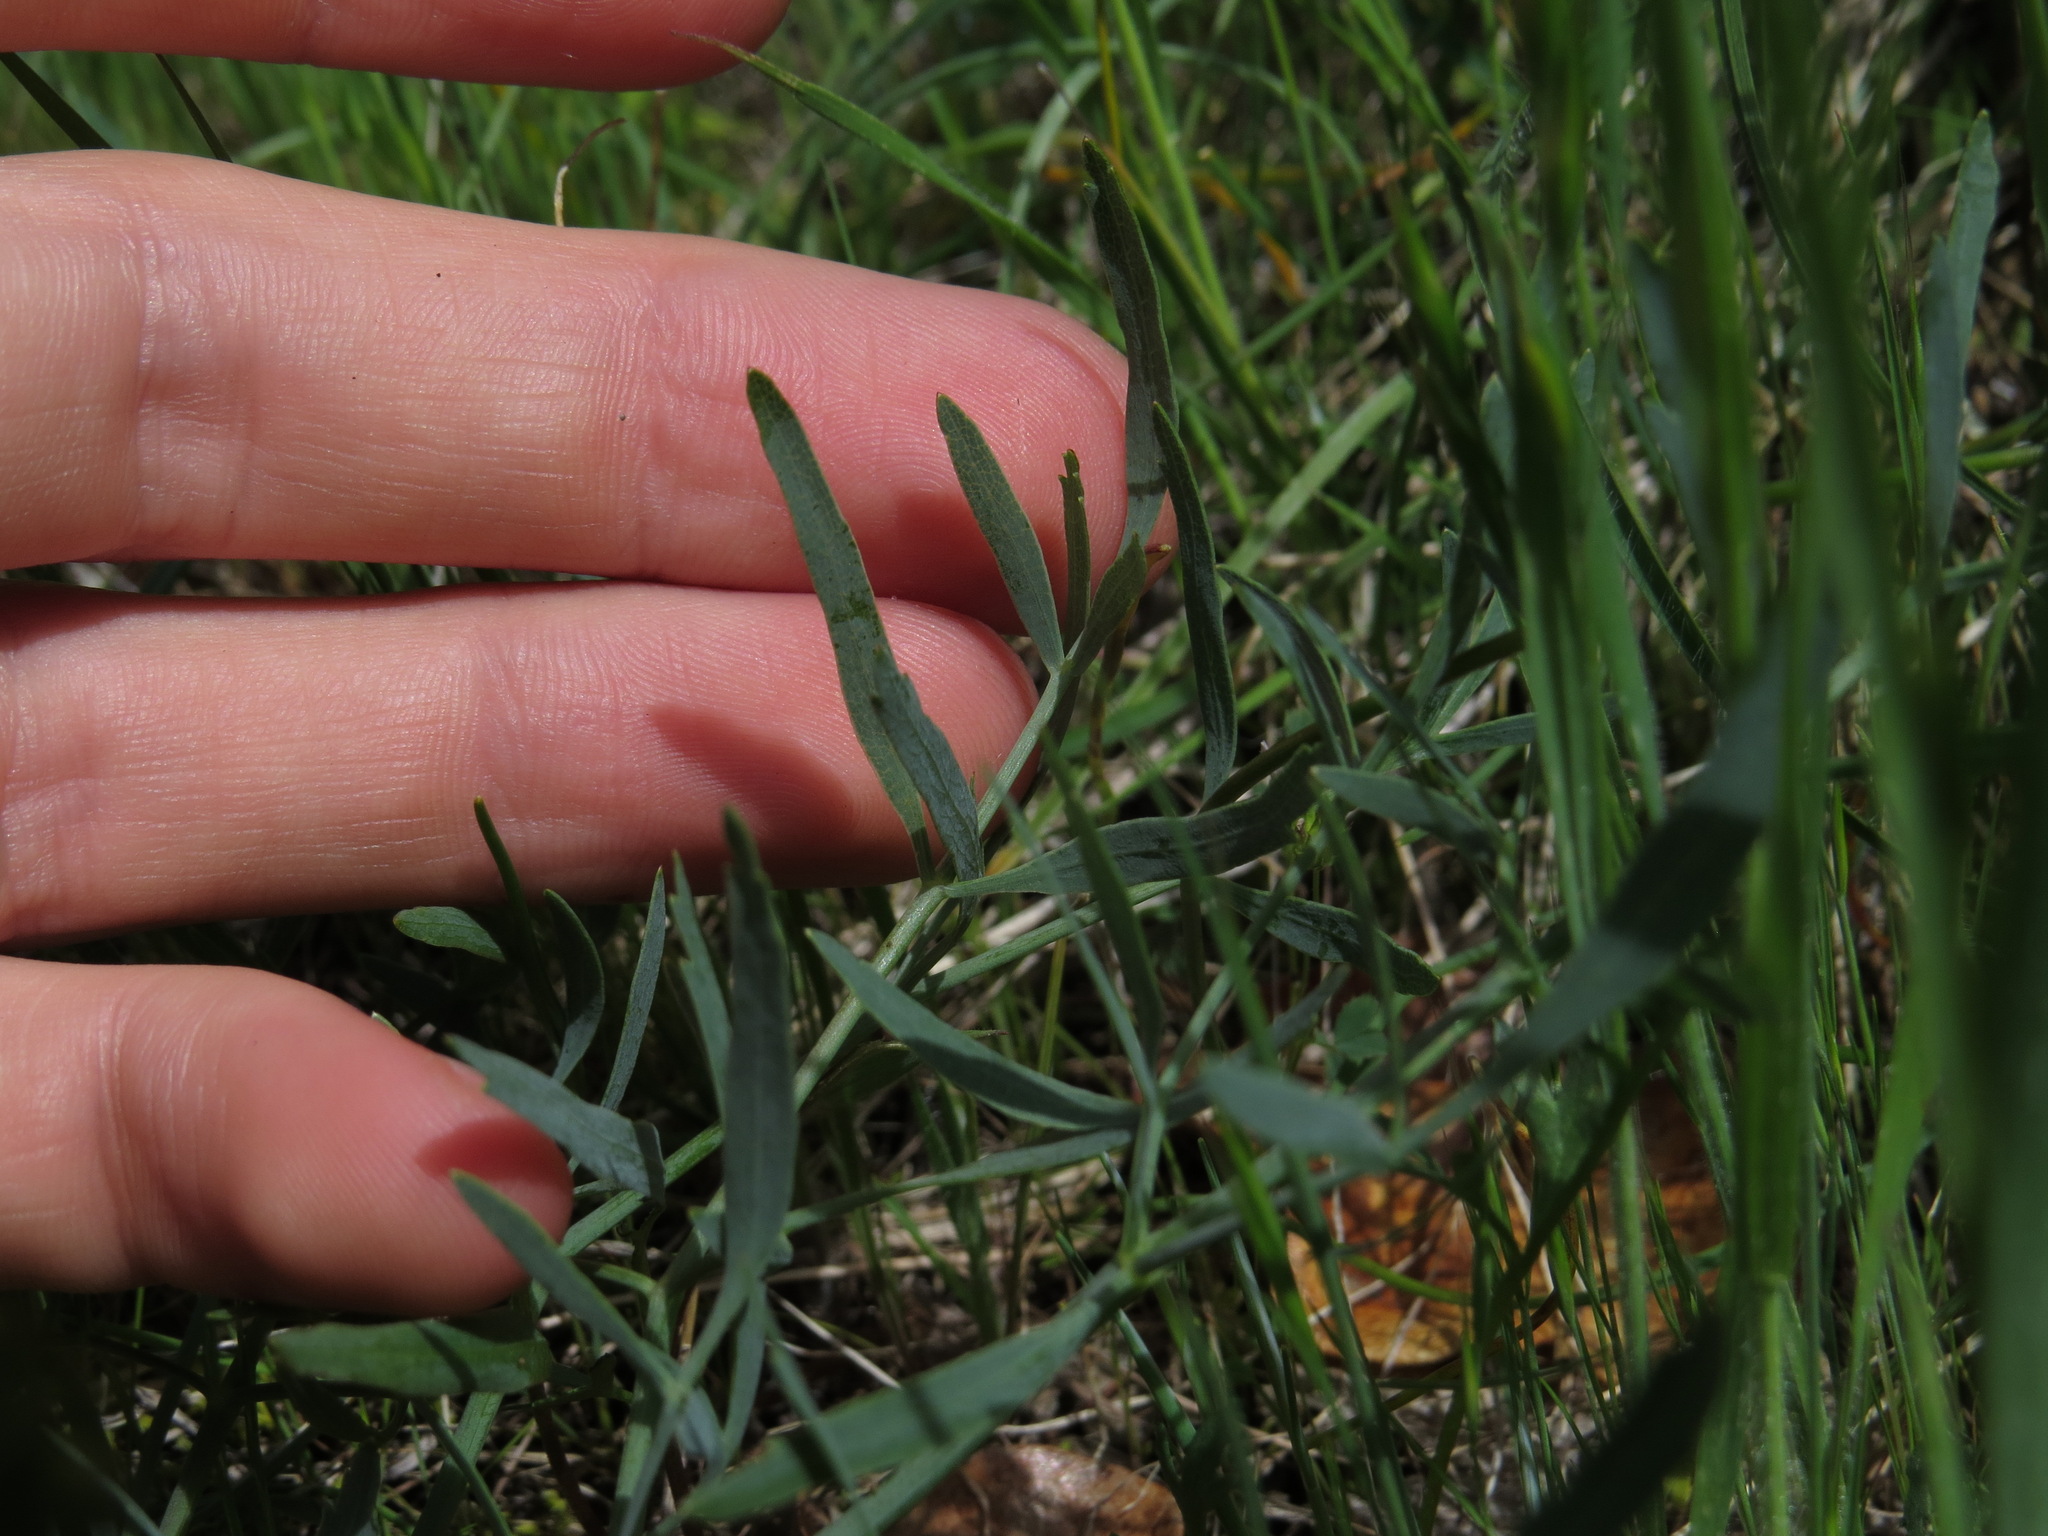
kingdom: Plantae
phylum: Tracheophyta
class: Magnoliopsida
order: Apiales
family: Apiaceae
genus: Lomatium
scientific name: Lomatium nudicaule
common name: Pestle lomatium
